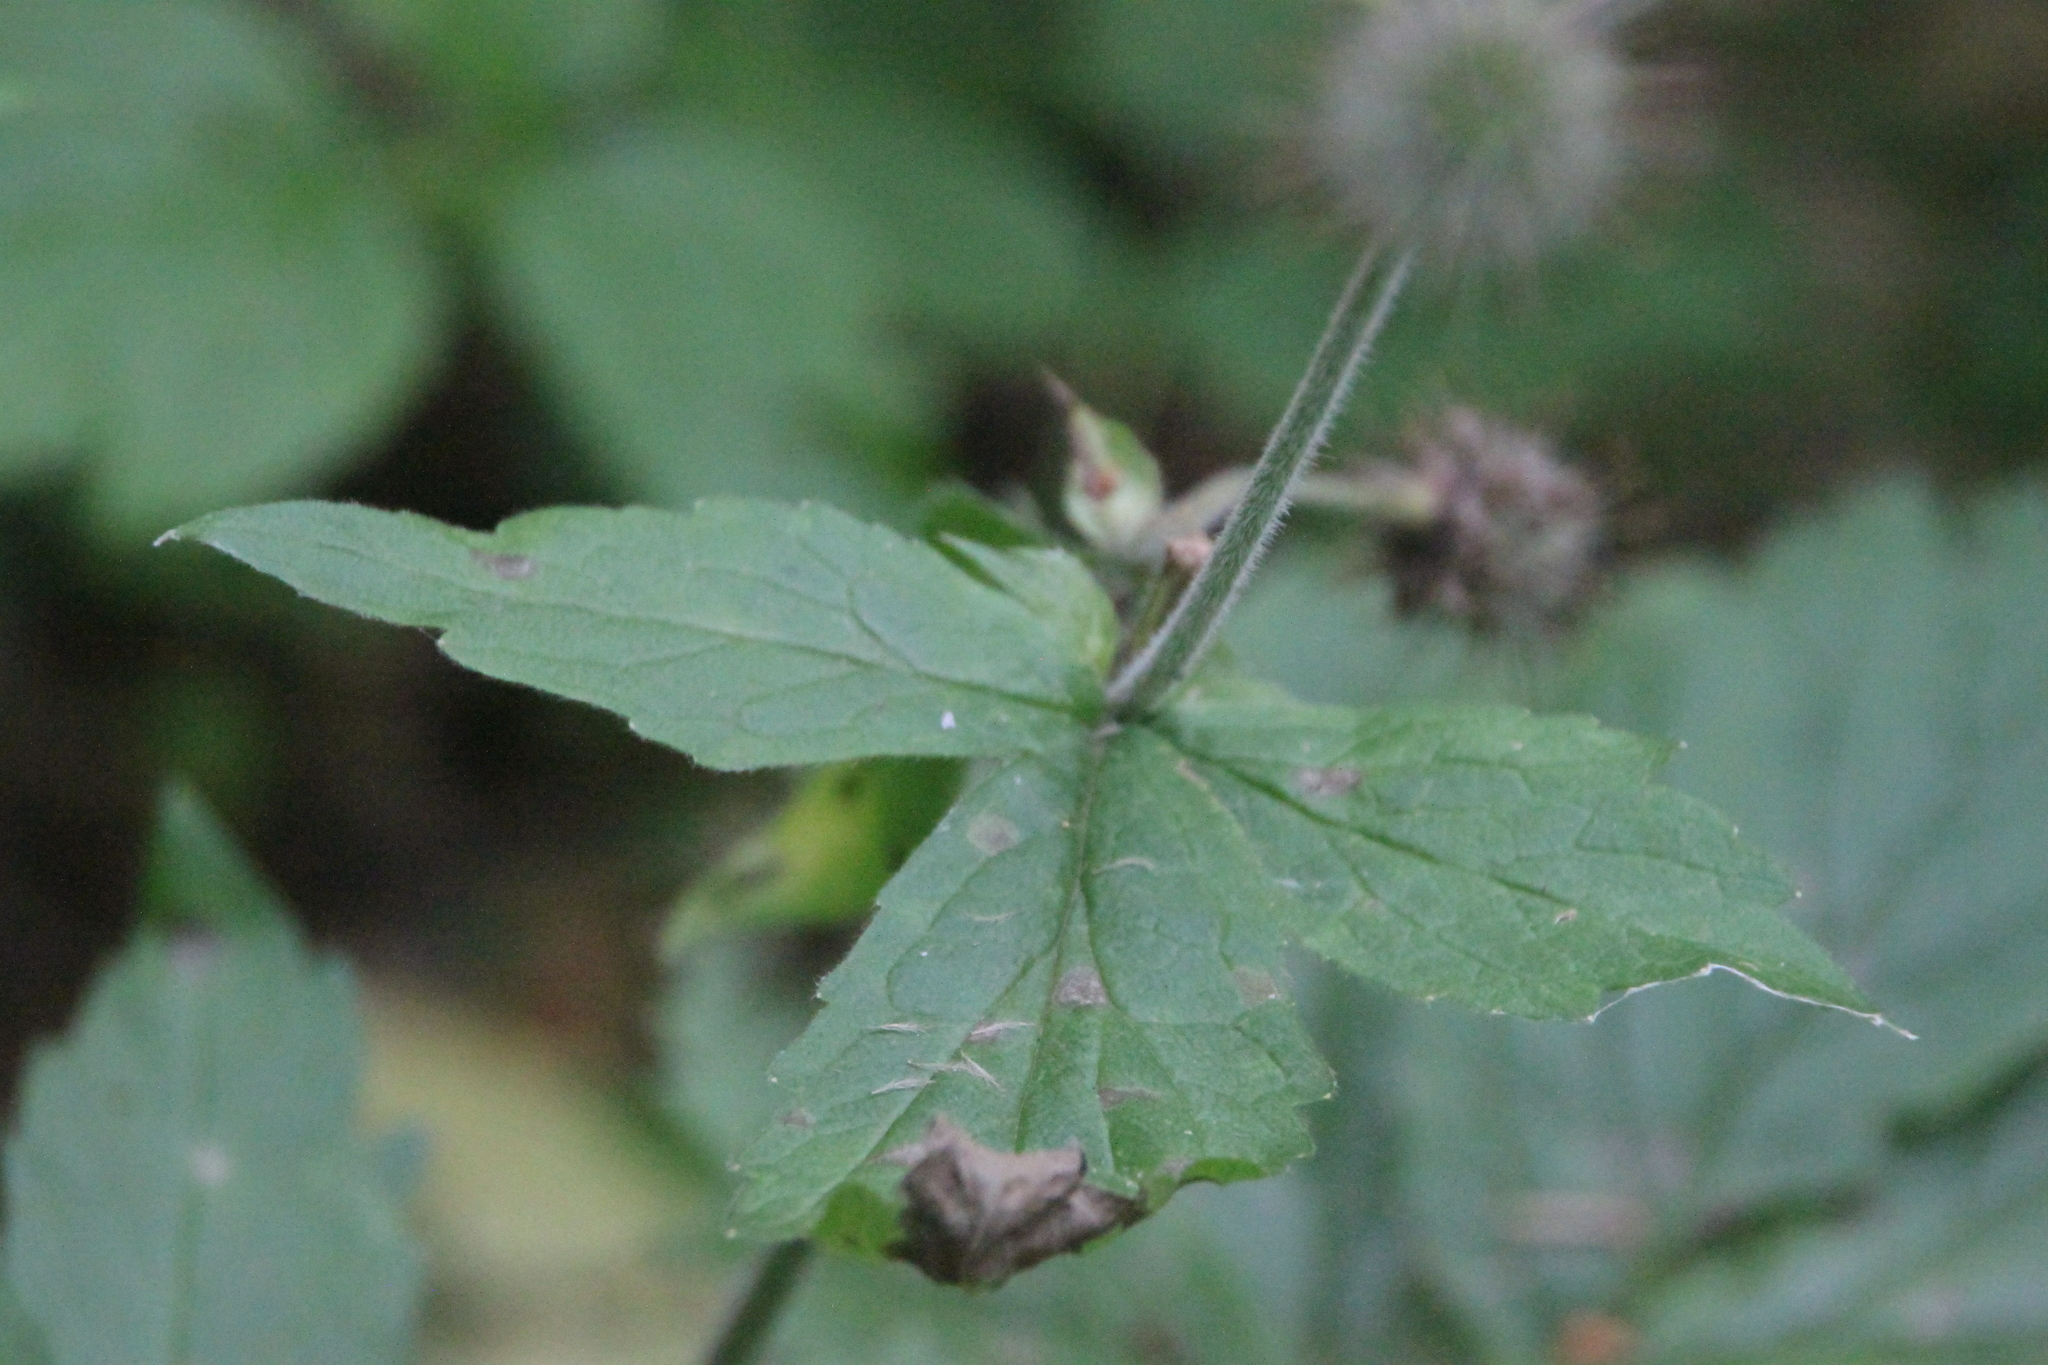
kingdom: Plantae
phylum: Tracheophyta
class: Magnoliopsida
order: Rosales
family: Rosaceae
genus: Geum
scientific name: Geum rivale
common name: Water avens
